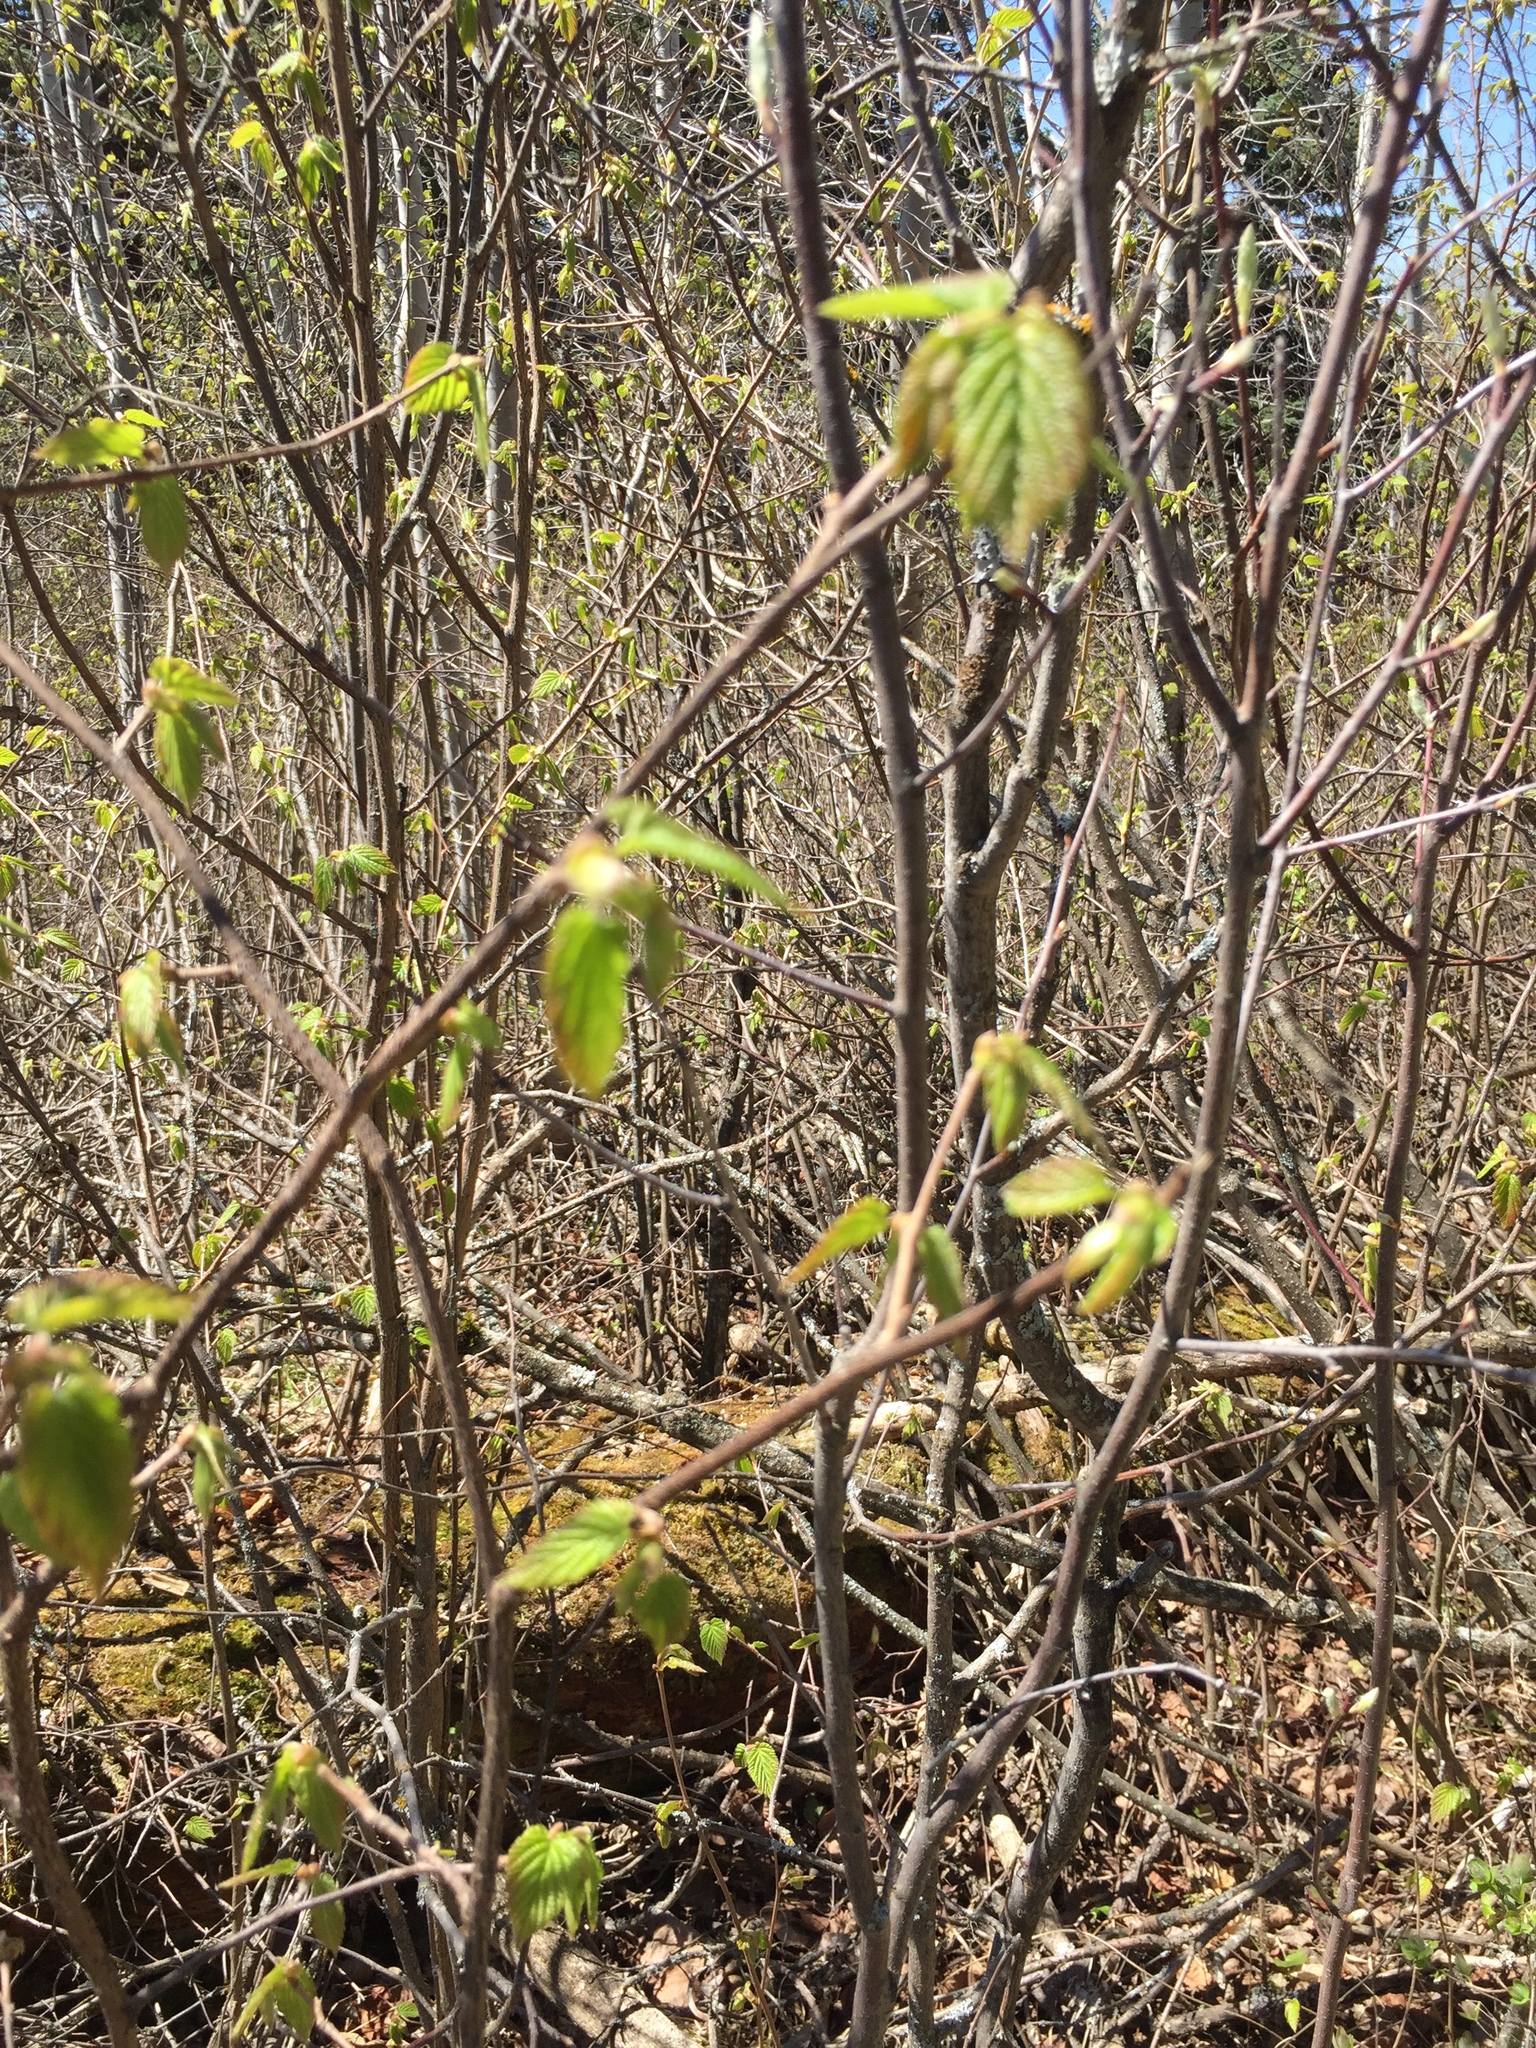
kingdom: Plantae
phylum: Tracheophyta
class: Magnoliopsida
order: Fagales
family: Betulaceae
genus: Corylus
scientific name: Corylus cornuta
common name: Beaked hazel
